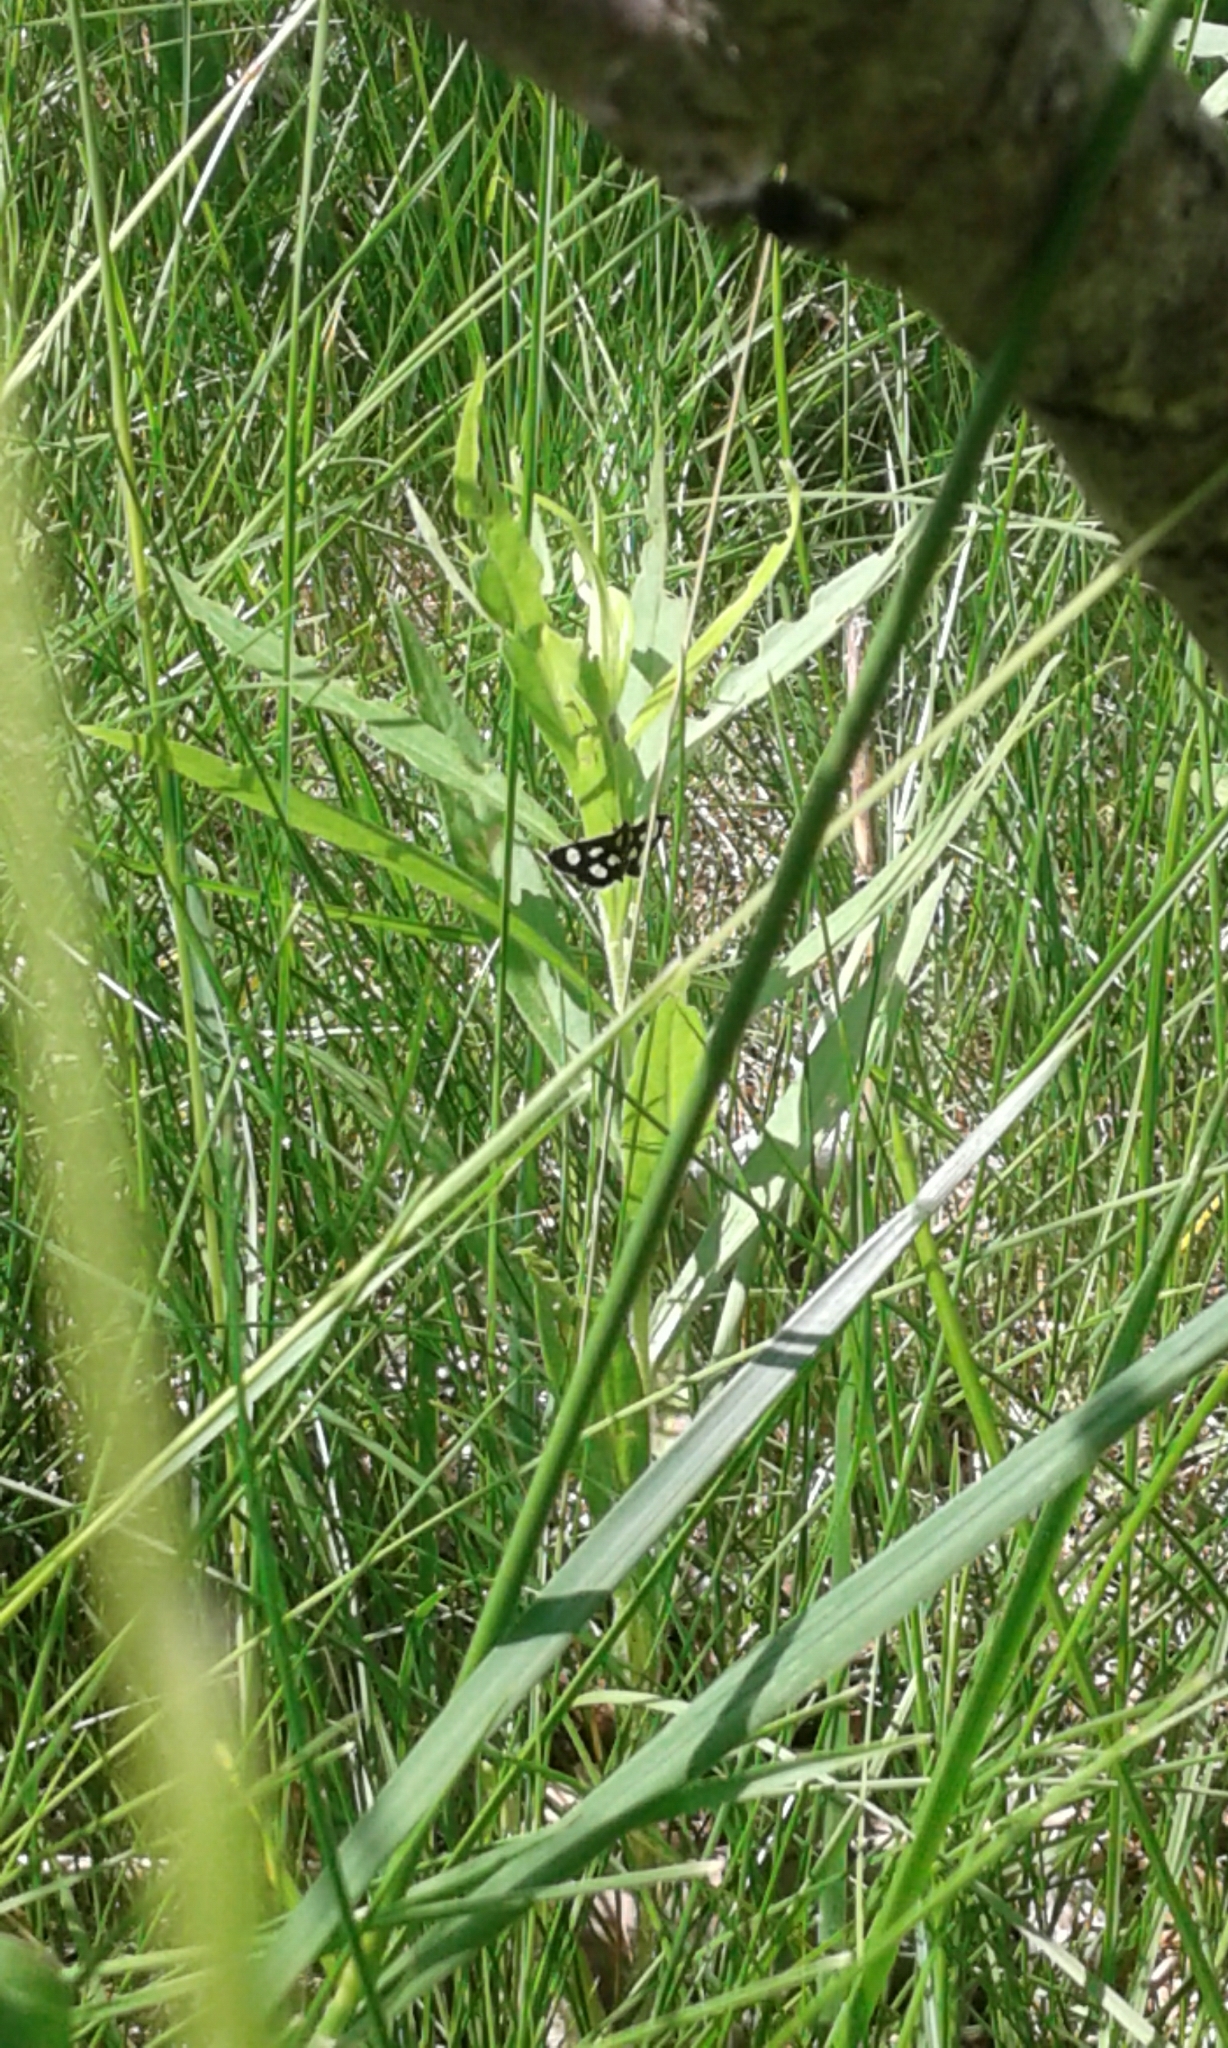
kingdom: Animalia
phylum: Arthropoda
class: Insecta
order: Lepidoptera
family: Crambidae
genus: Anania
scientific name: Anania funebris
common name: White-spotted sable moth
